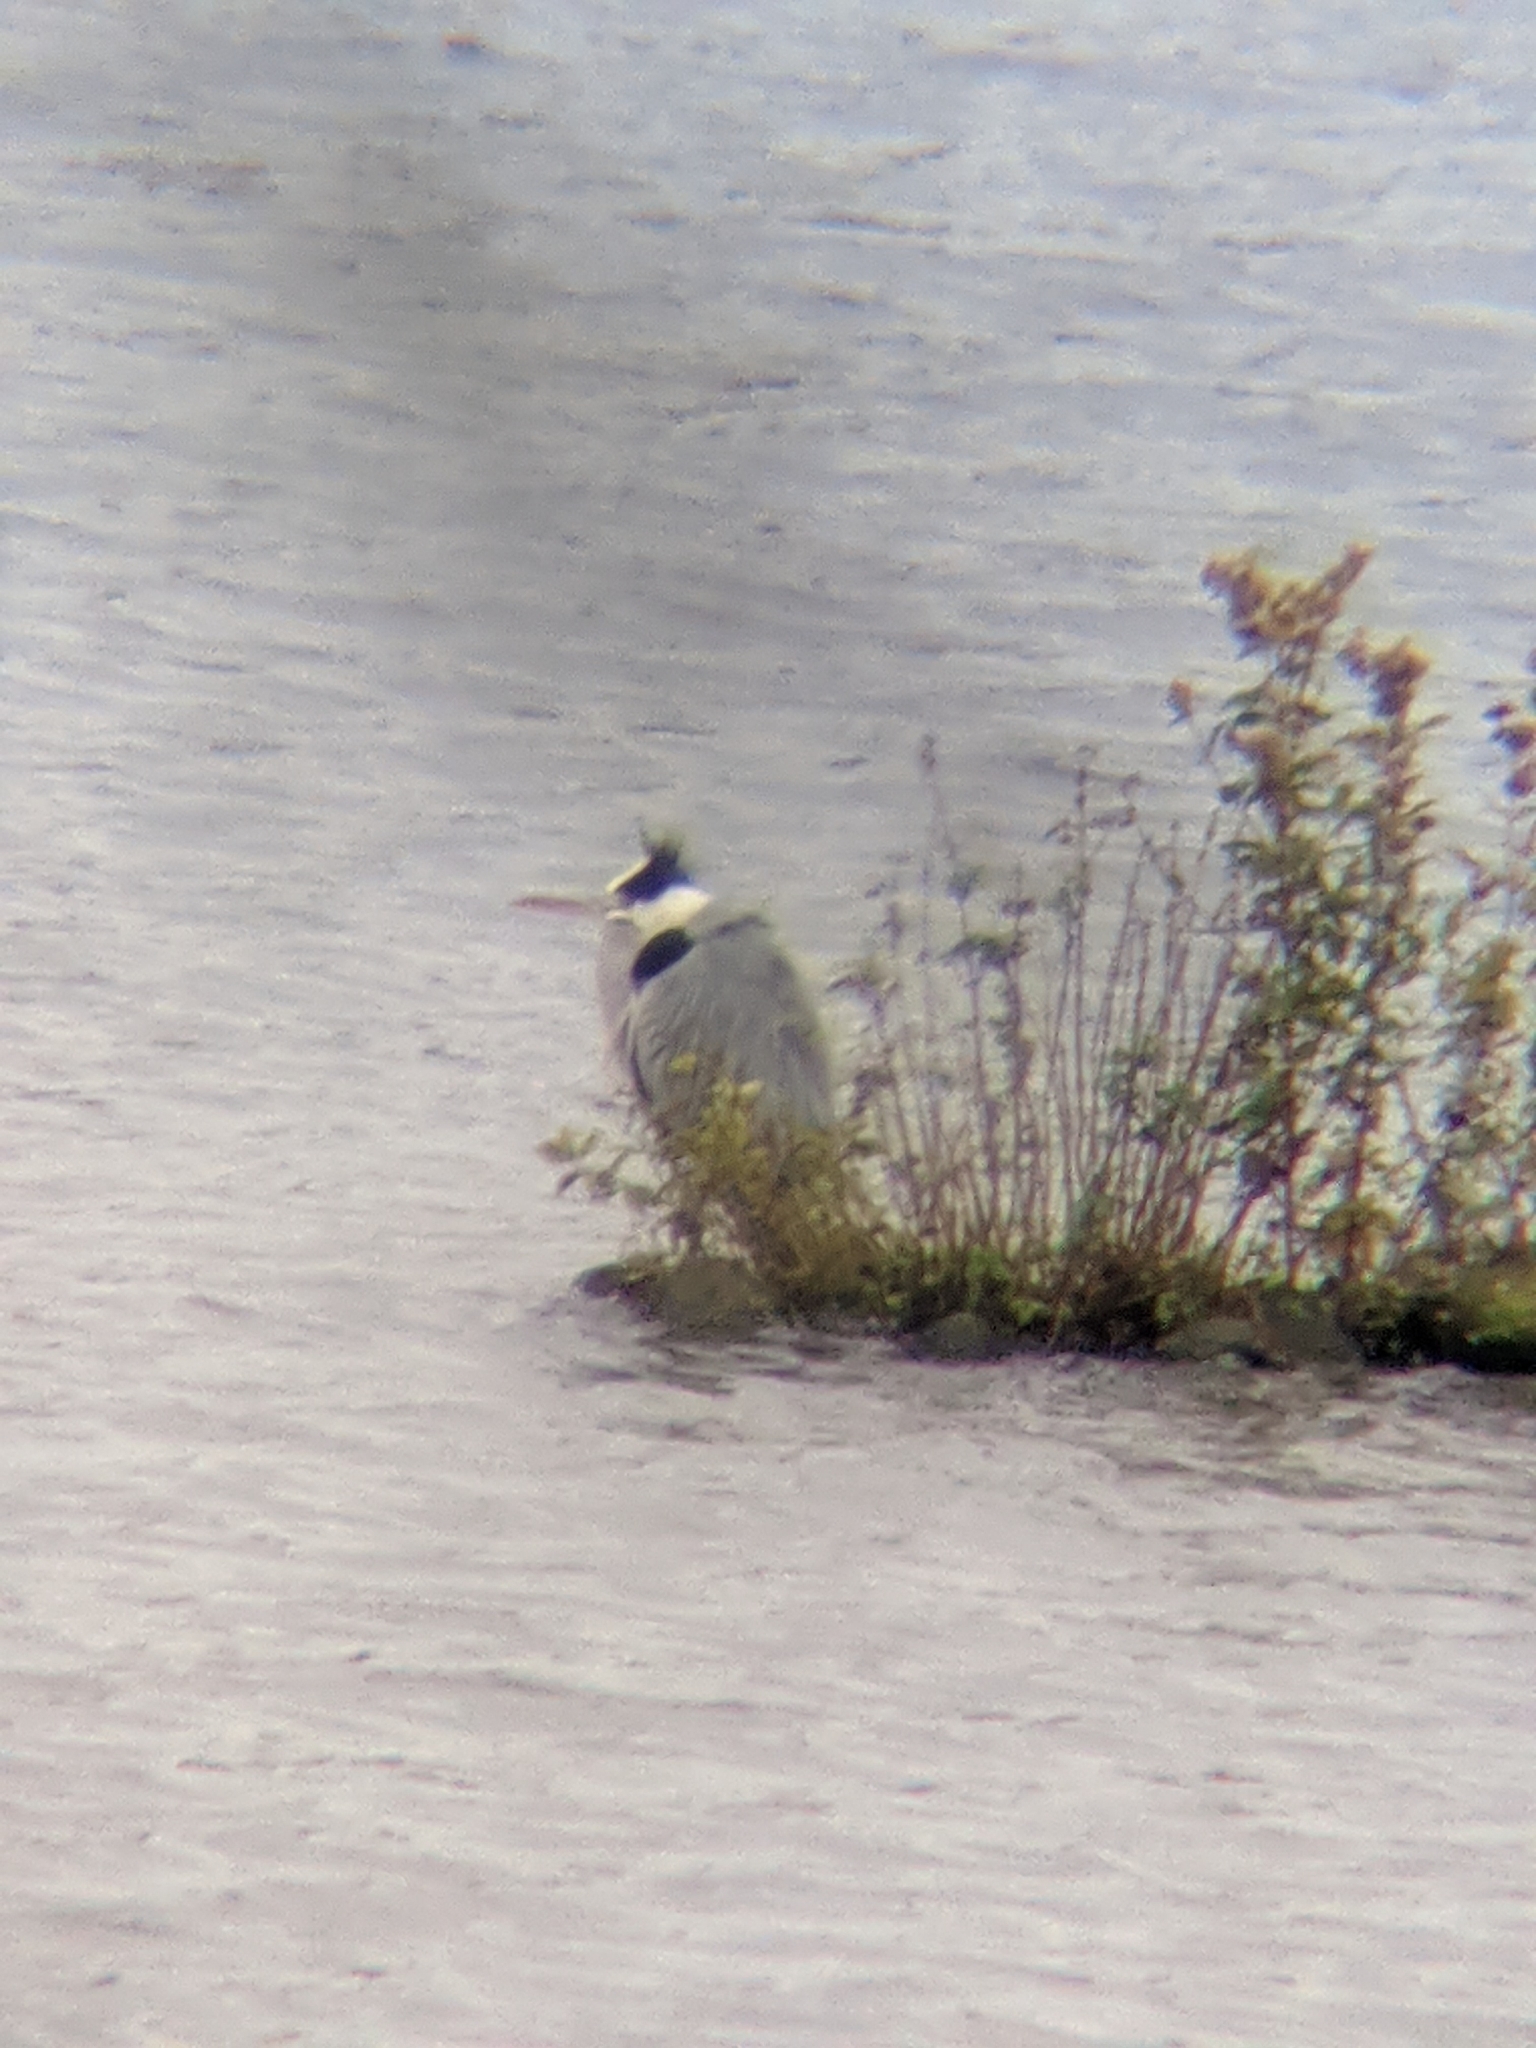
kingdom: Animalia
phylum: Chordata
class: Aves
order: Pelecaniformes
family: Ardeidae
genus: Ardea
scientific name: Ardea cinerea
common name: Grey heron
